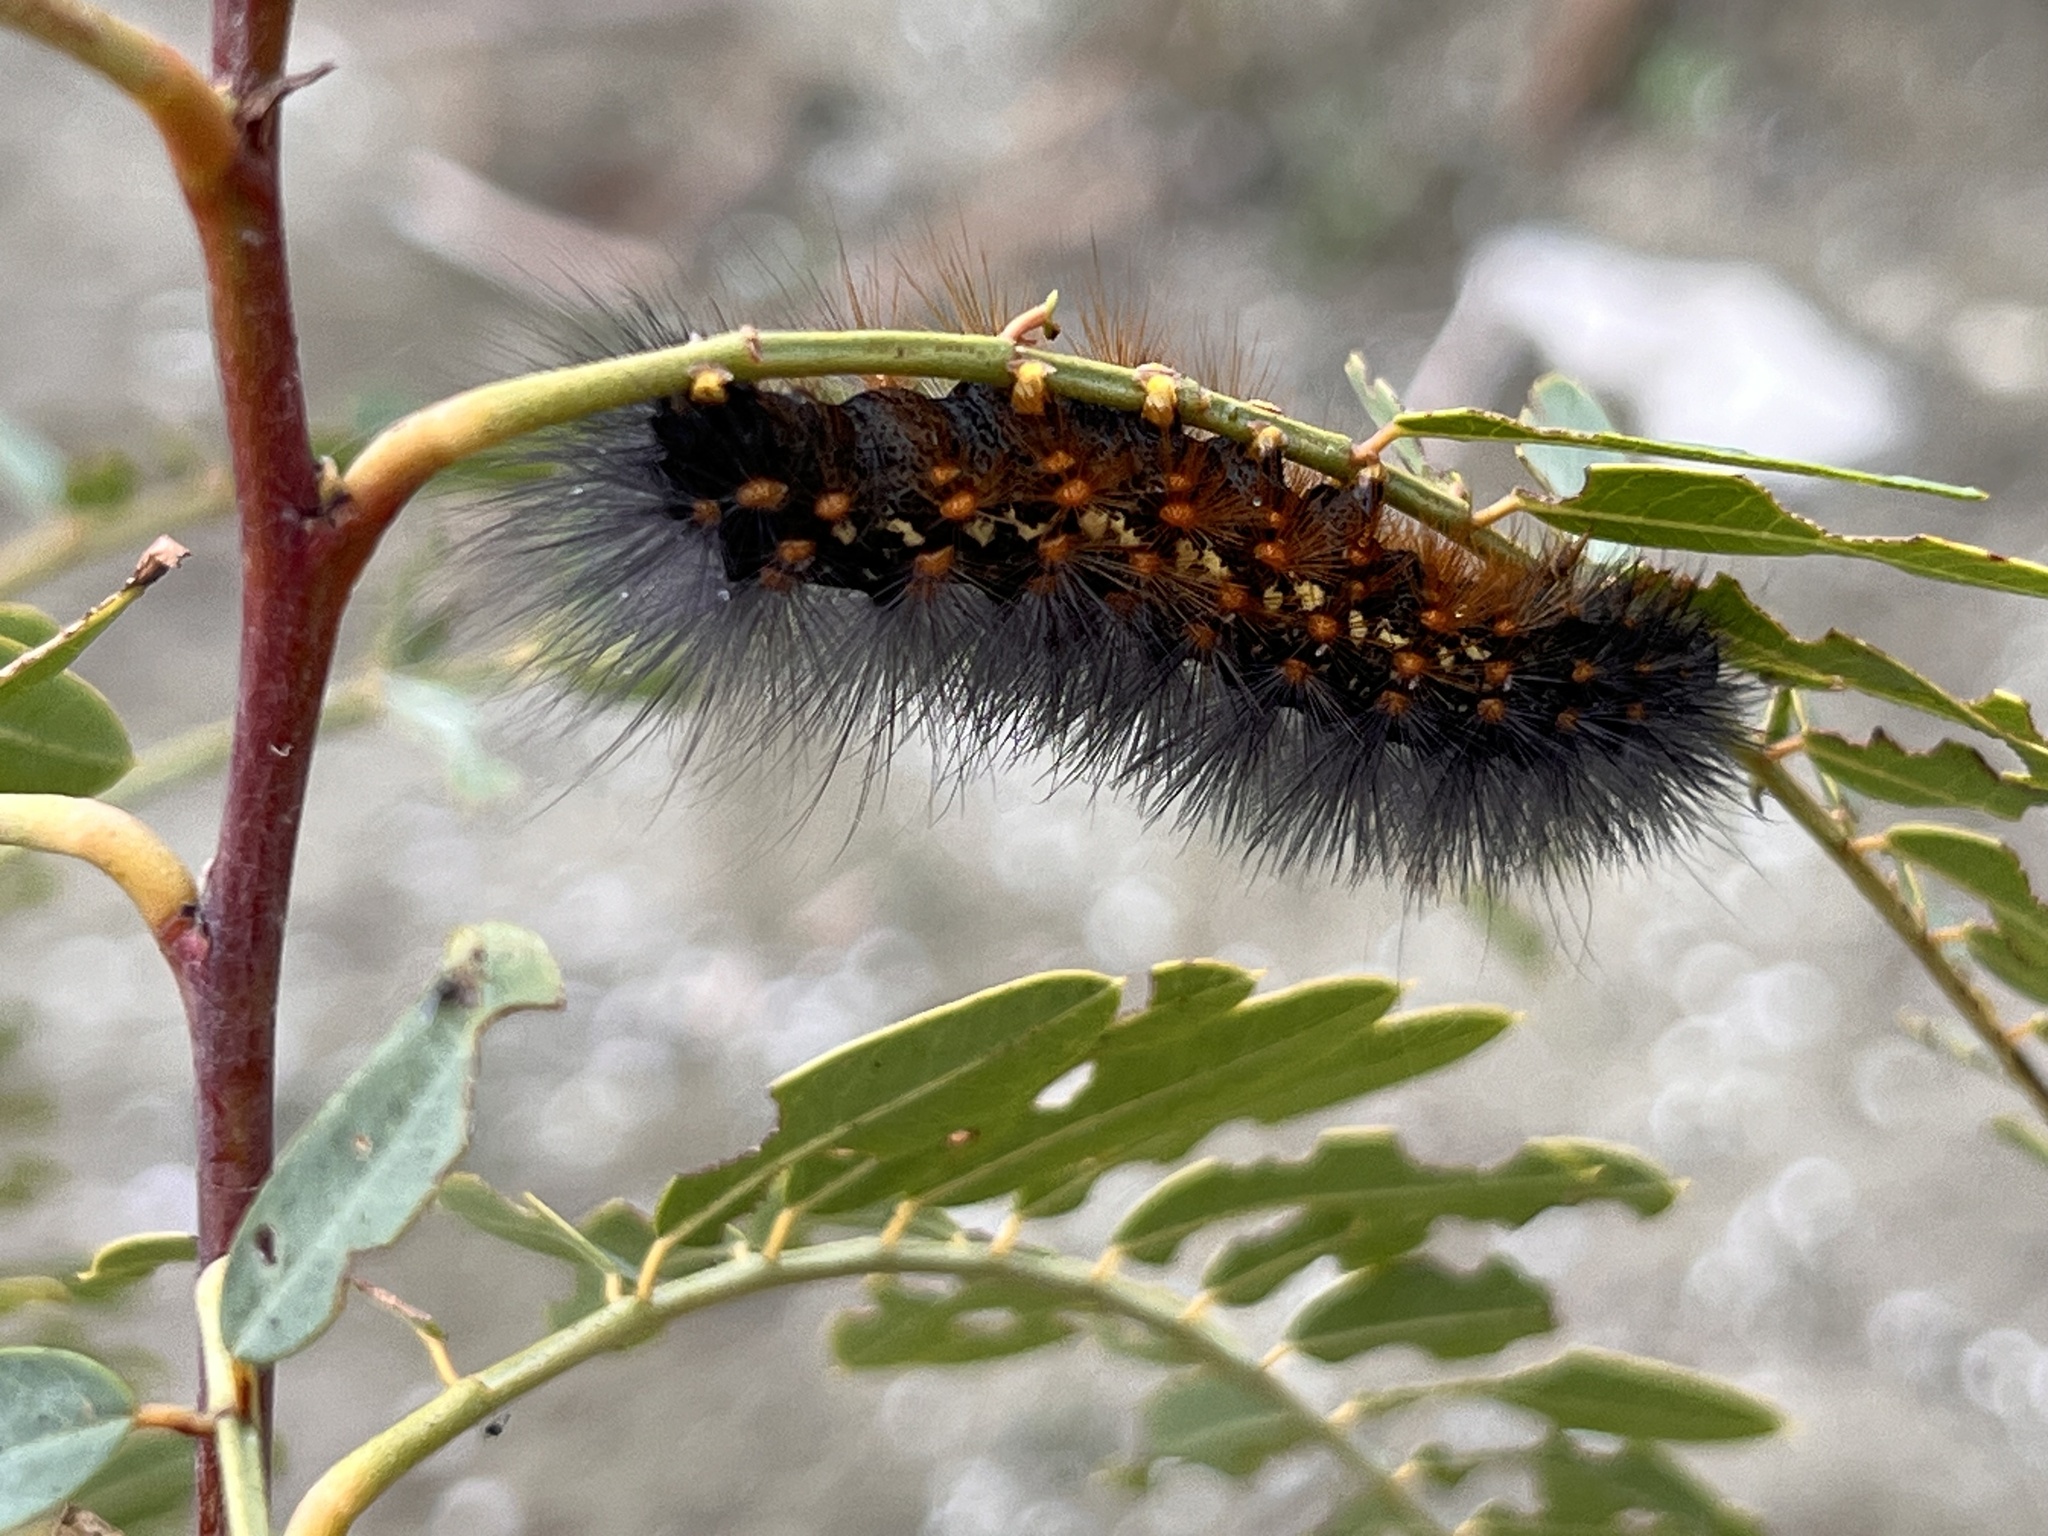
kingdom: Animalia
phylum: Arthropoda
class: Insecta
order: Lepidoptera
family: Erebidae
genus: Estigmene
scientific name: Estigmene acrea
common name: Salt marsh moth
